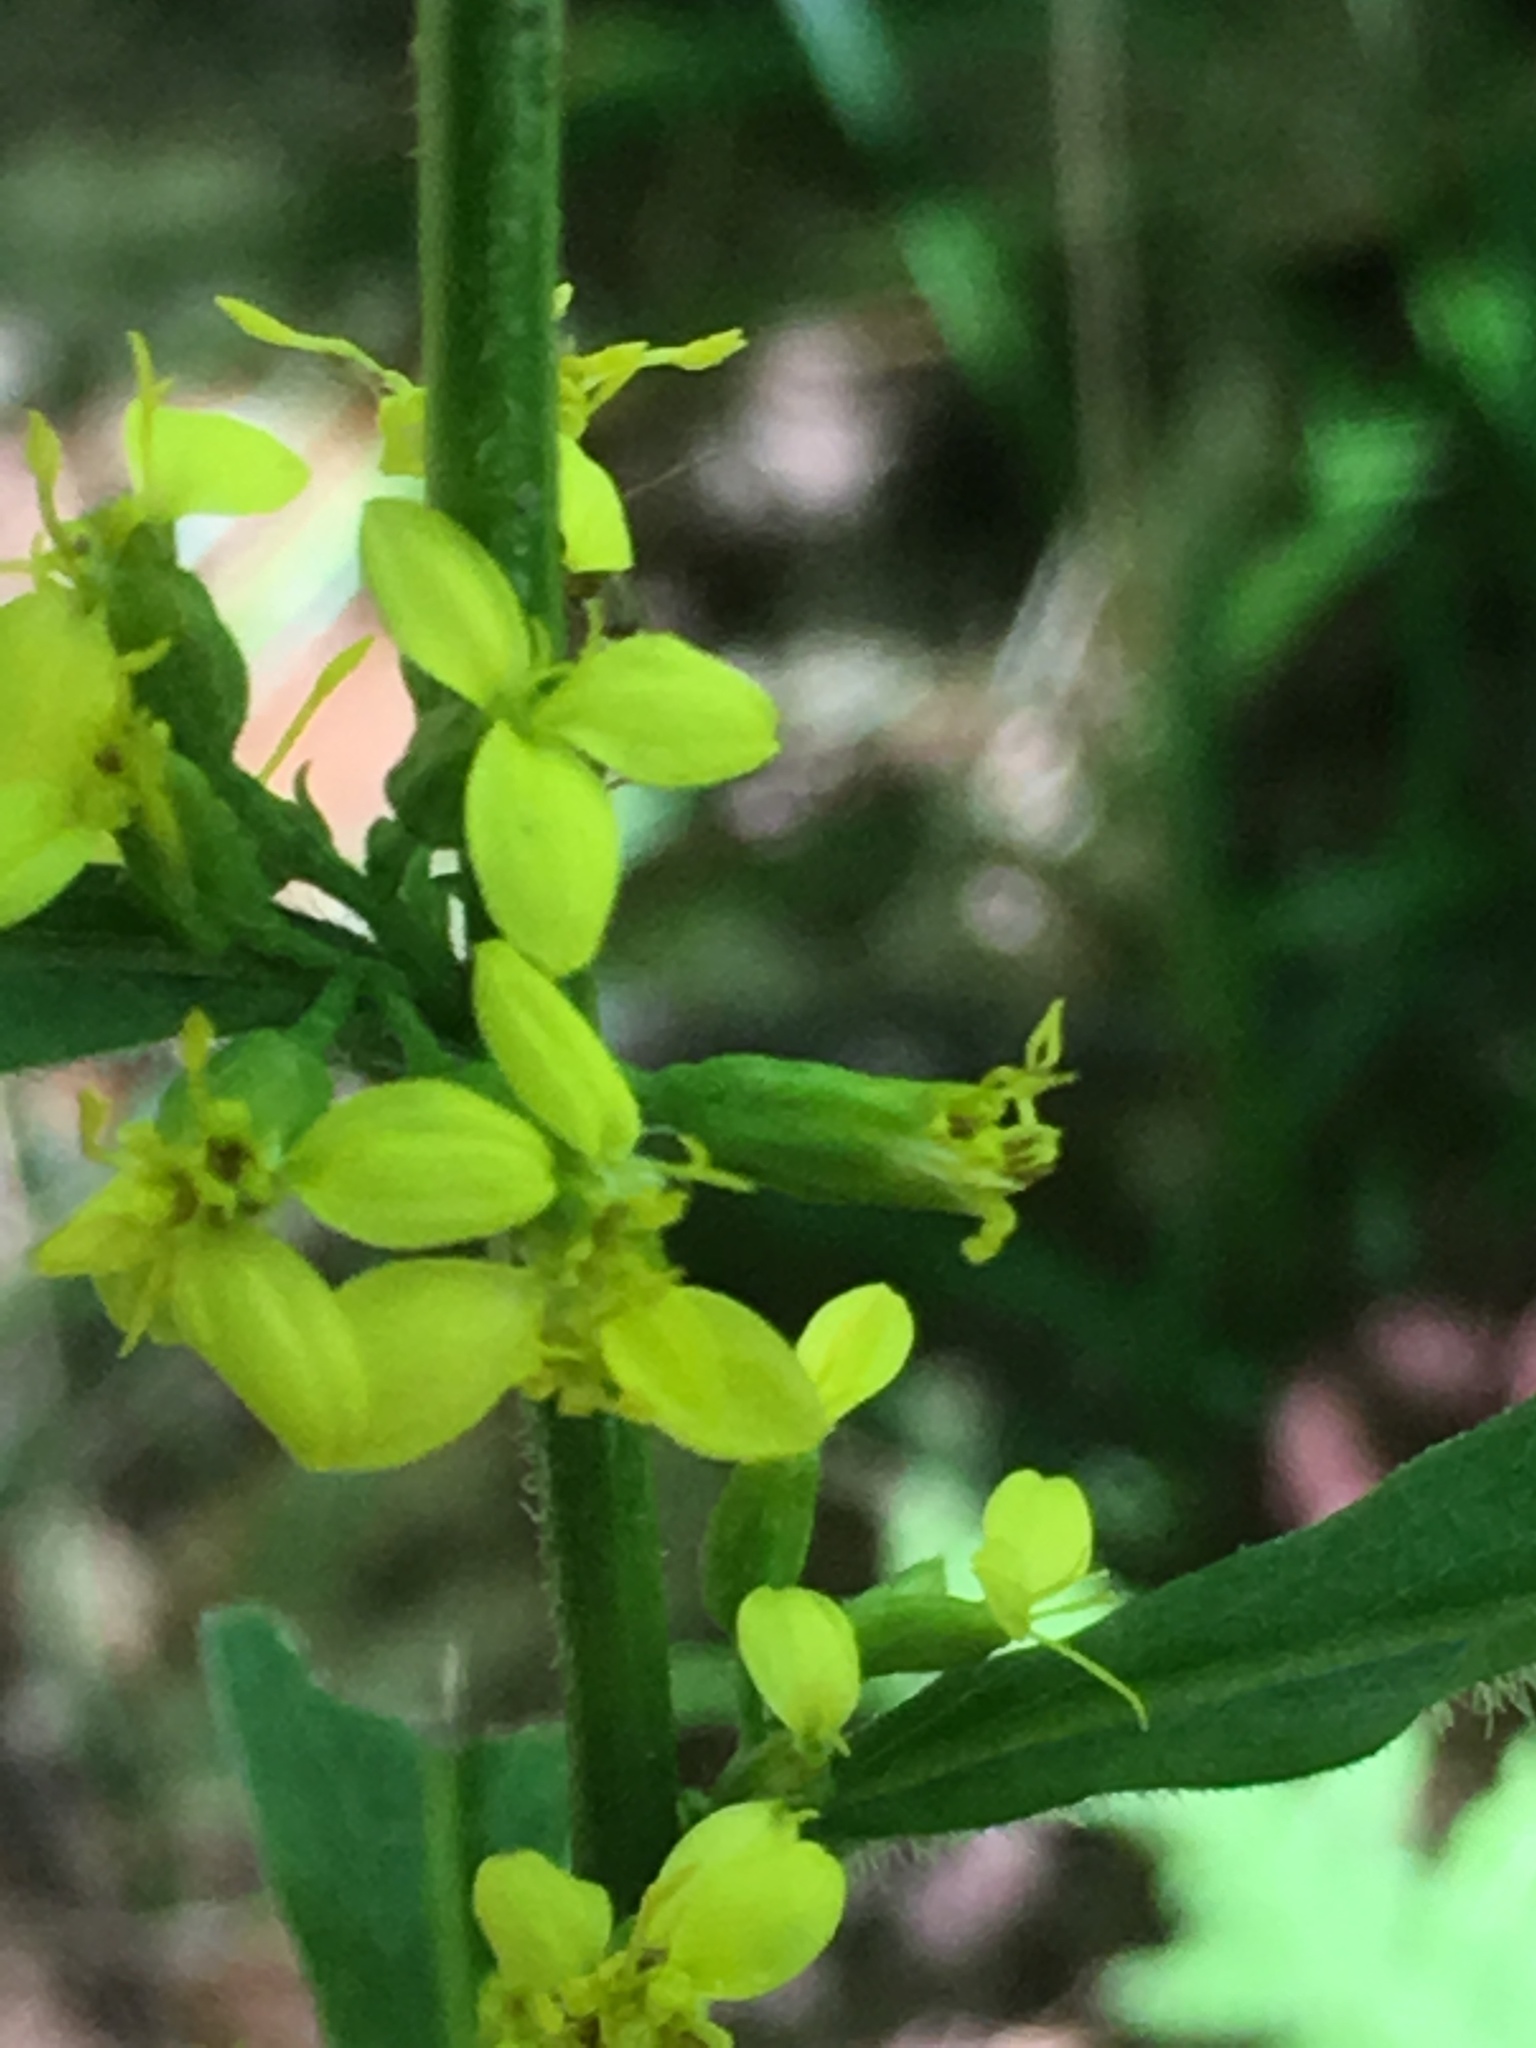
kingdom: Plantae
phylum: Tracheophyta
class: Magnoliopsida
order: Asterales
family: Asteraceae
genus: Solidago
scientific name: Solidago flexicaulis
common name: Zig-zag goldenrod
